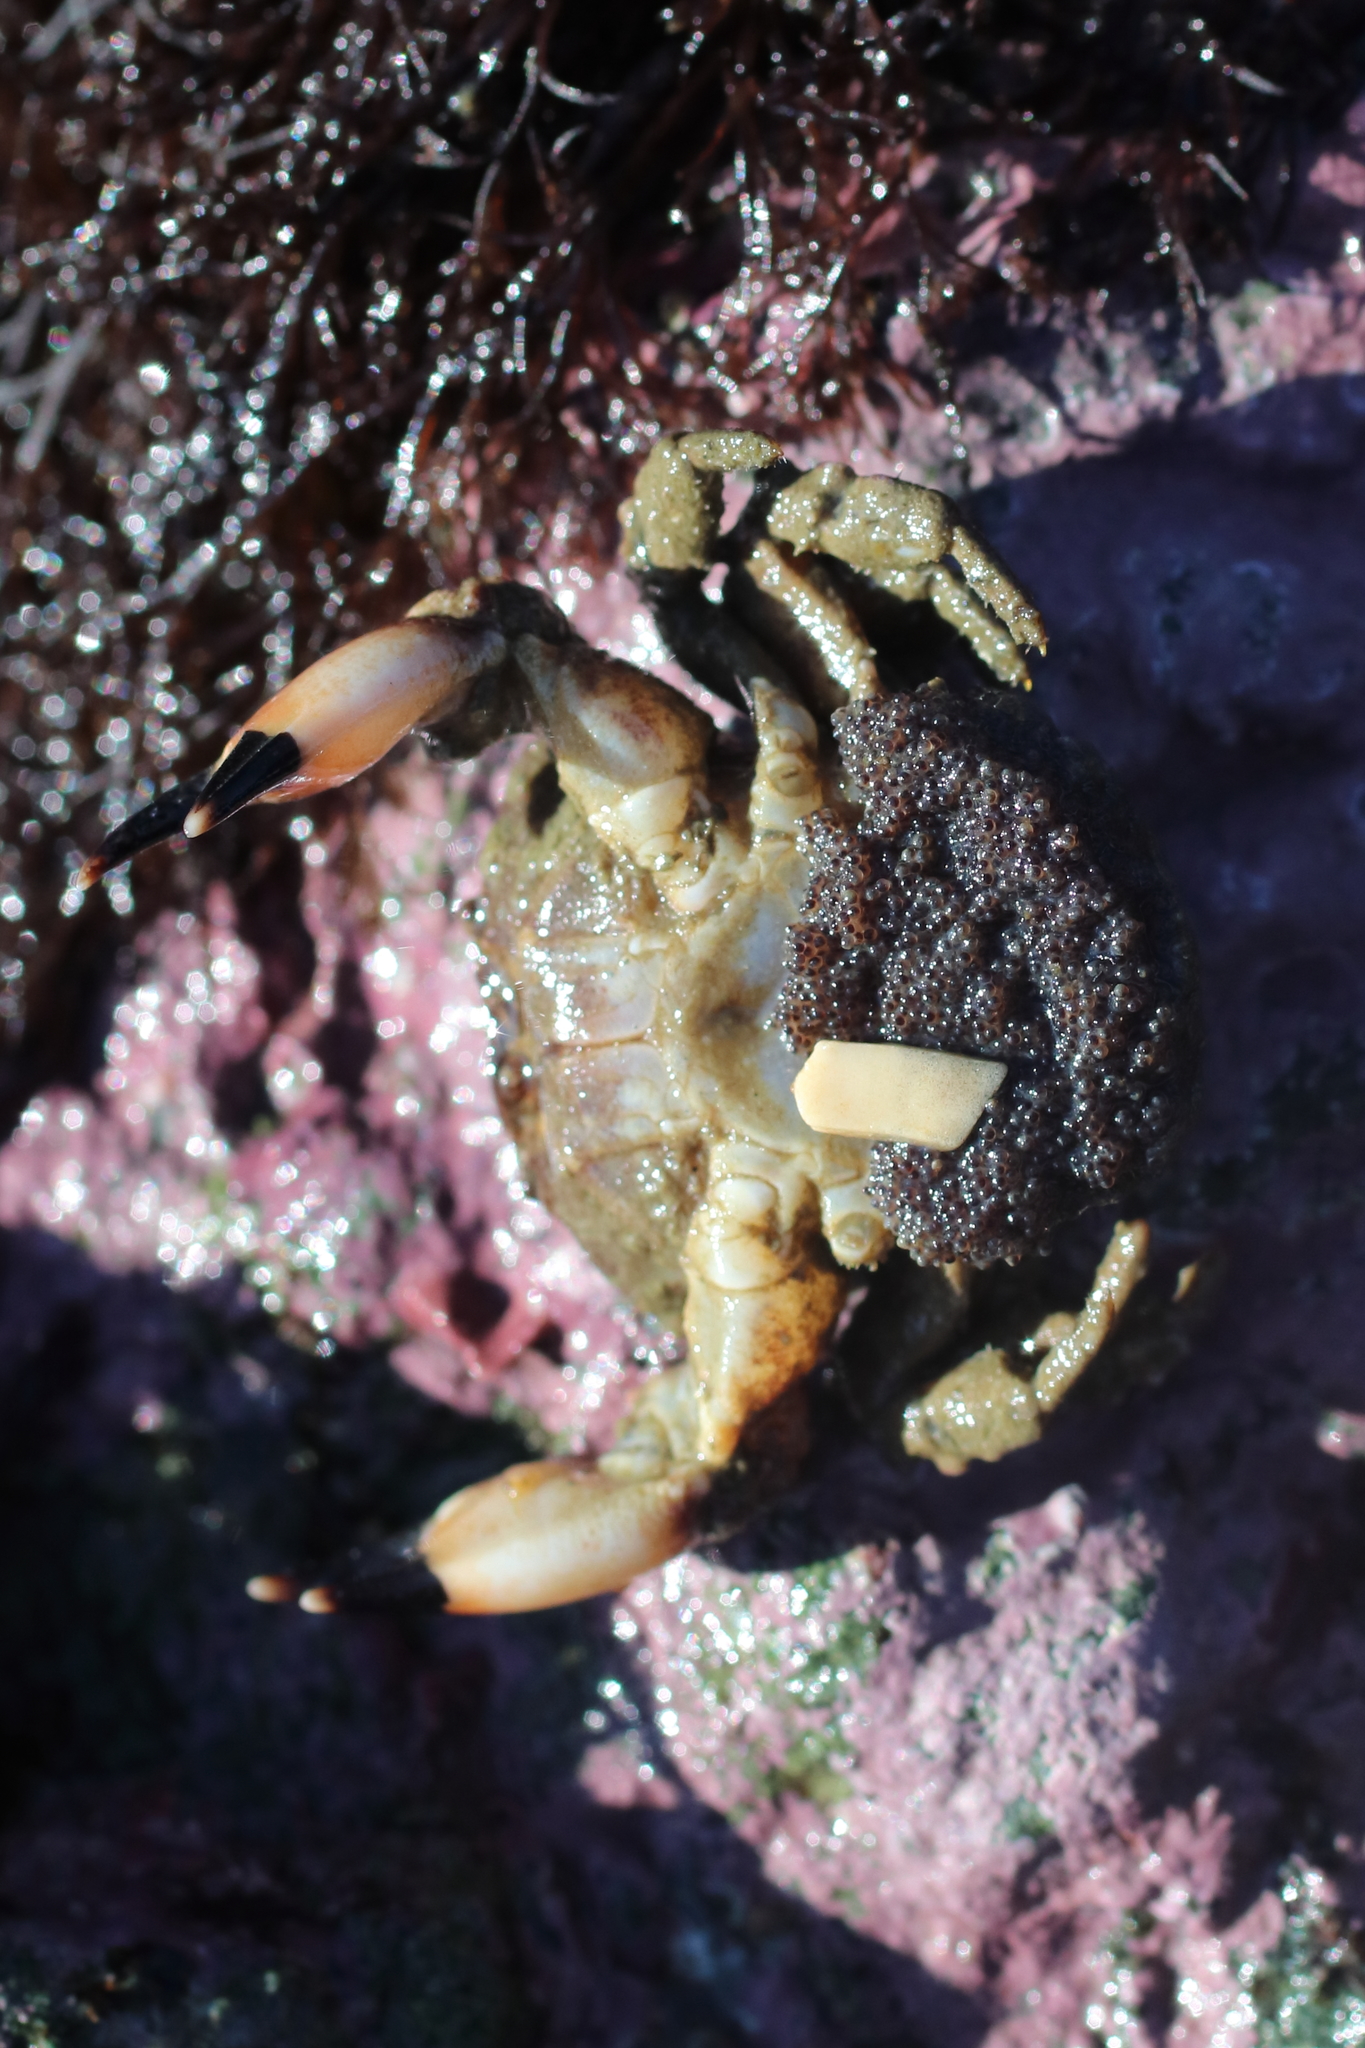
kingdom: Animalia
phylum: Arthropoda
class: Malacostraca
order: Decapoda
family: Panopeidae
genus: Lophopanopeus
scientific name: Lophopanopeus bellus
